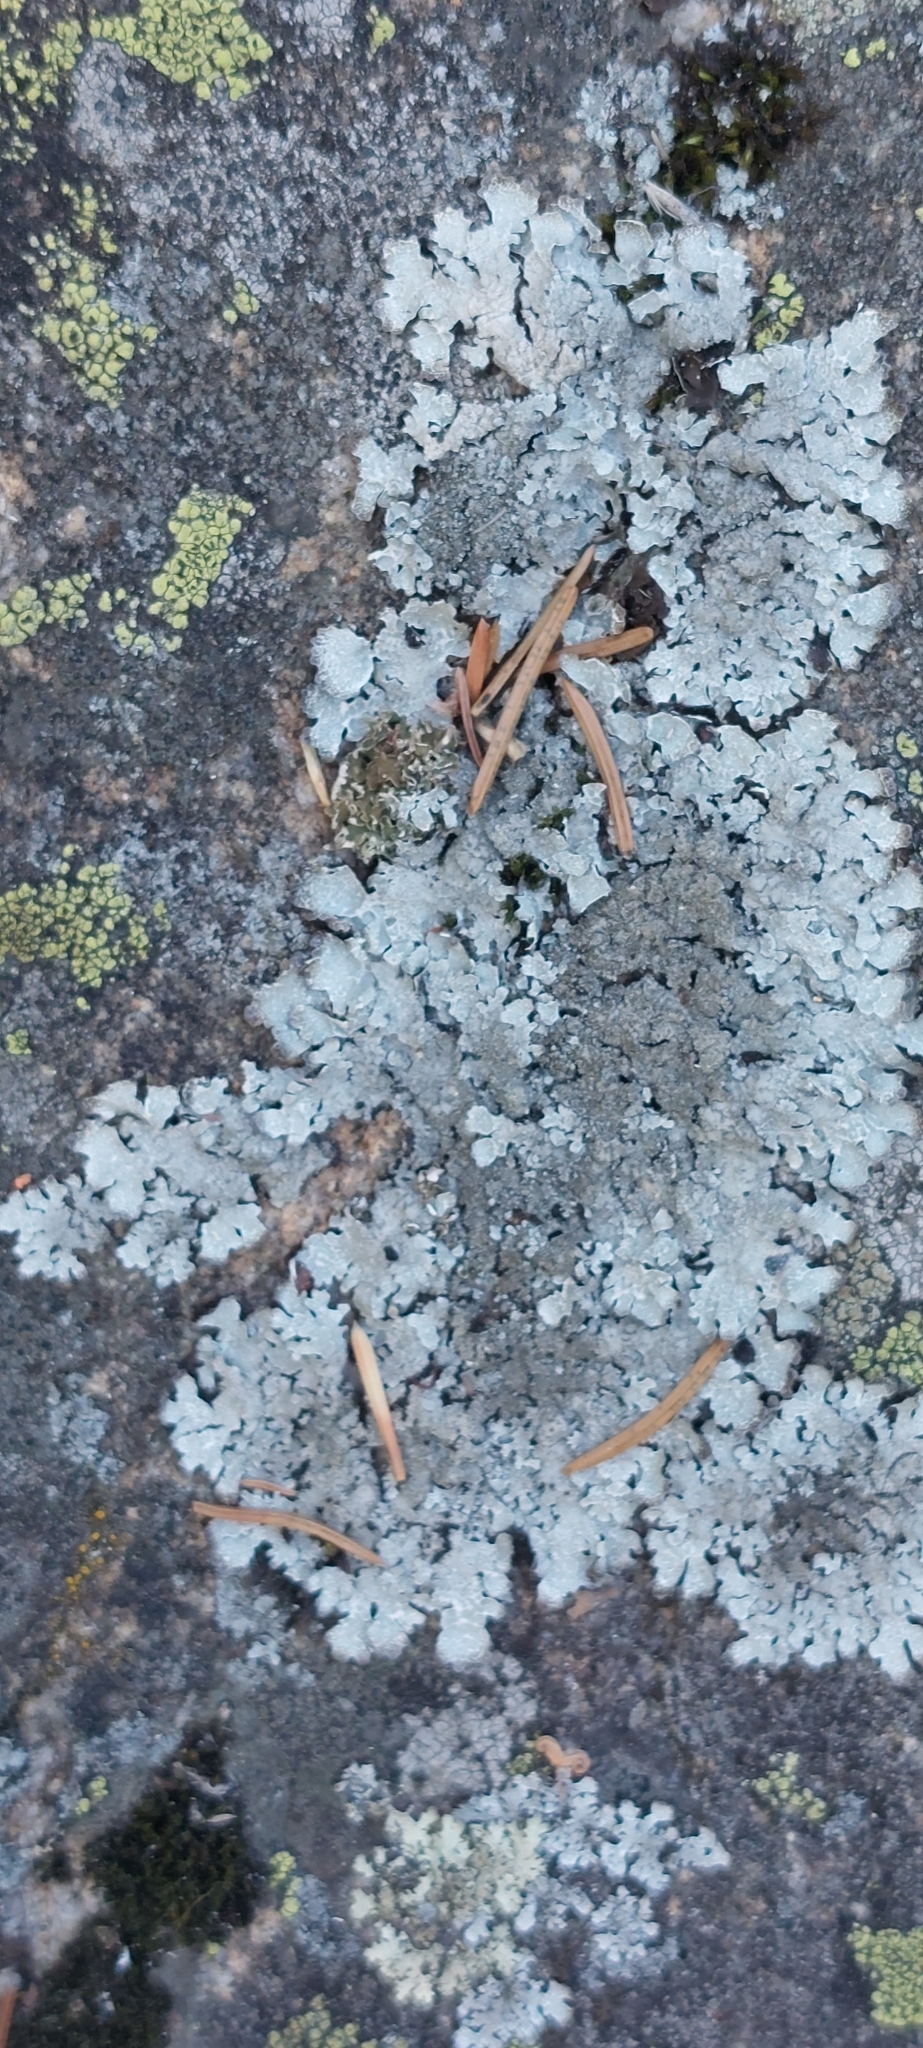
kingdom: Fungi
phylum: Ascomycota
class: Lecanoromycetes
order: Lecanorales
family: Parmeliaceae
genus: Parmelia
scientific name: Parmelia saxatilis
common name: Salted shield lichen
